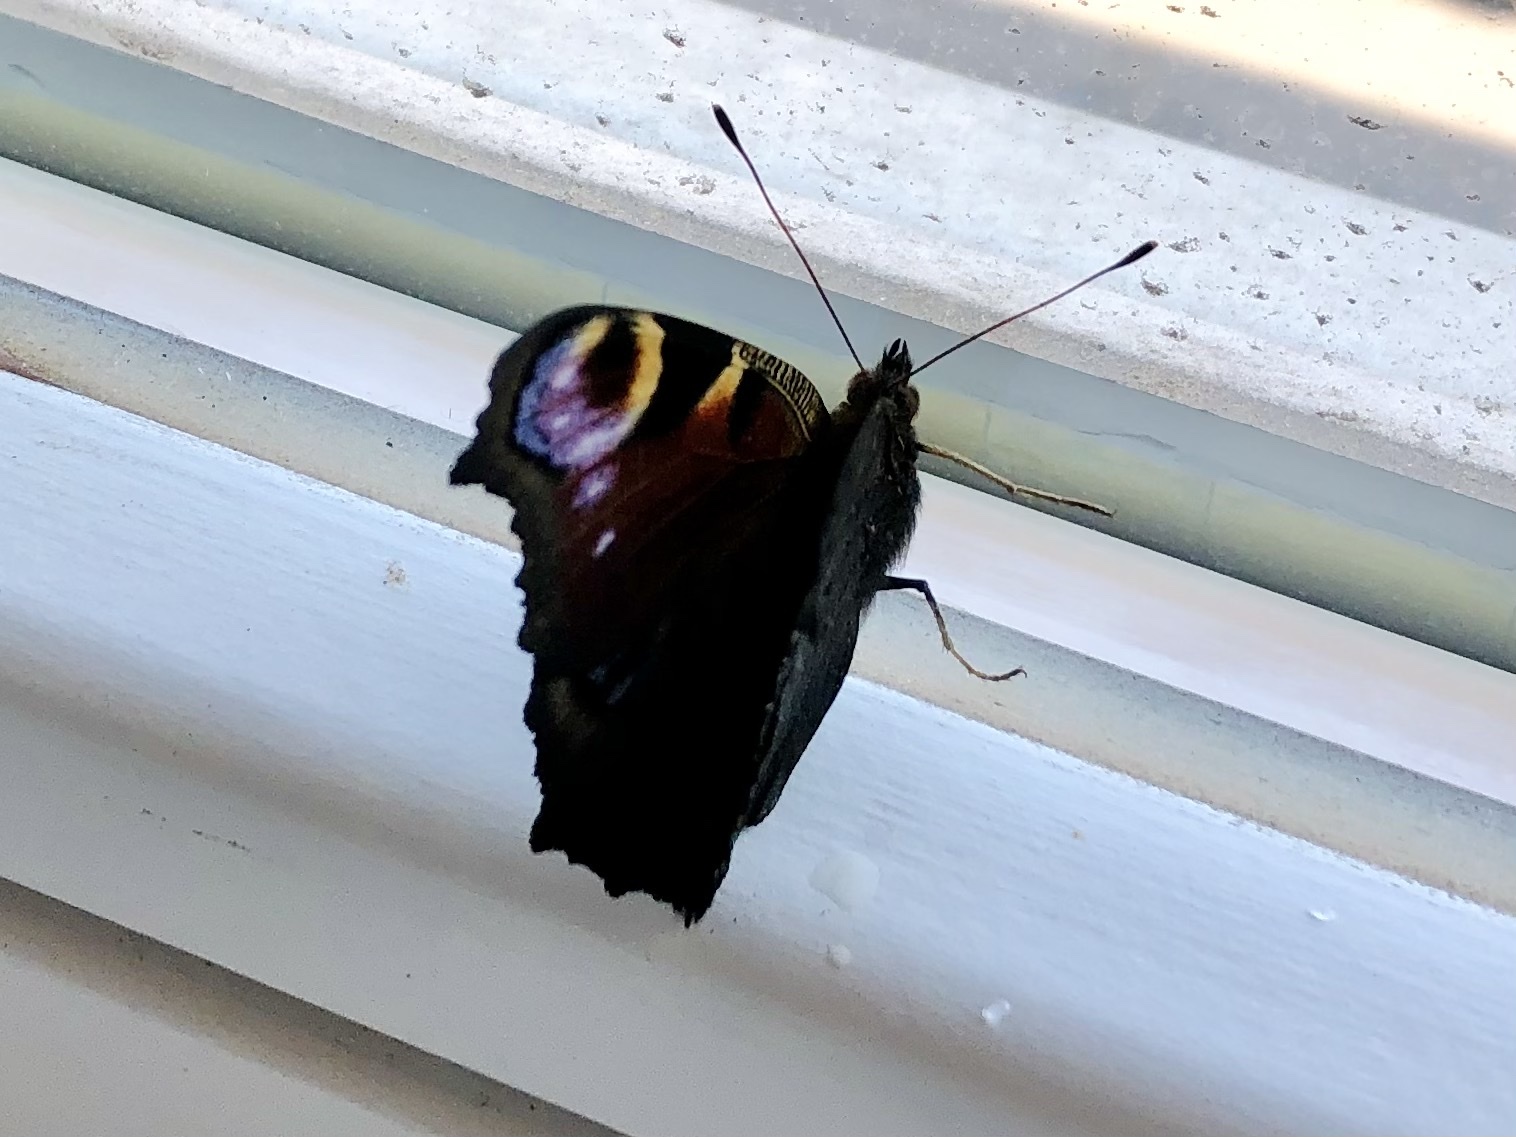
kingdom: Animalia
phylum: Arthropoda
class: Insecta
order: Lepidoptera
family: Nymphalidae
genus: Aglais
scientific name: Aglais io
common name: Peacock
